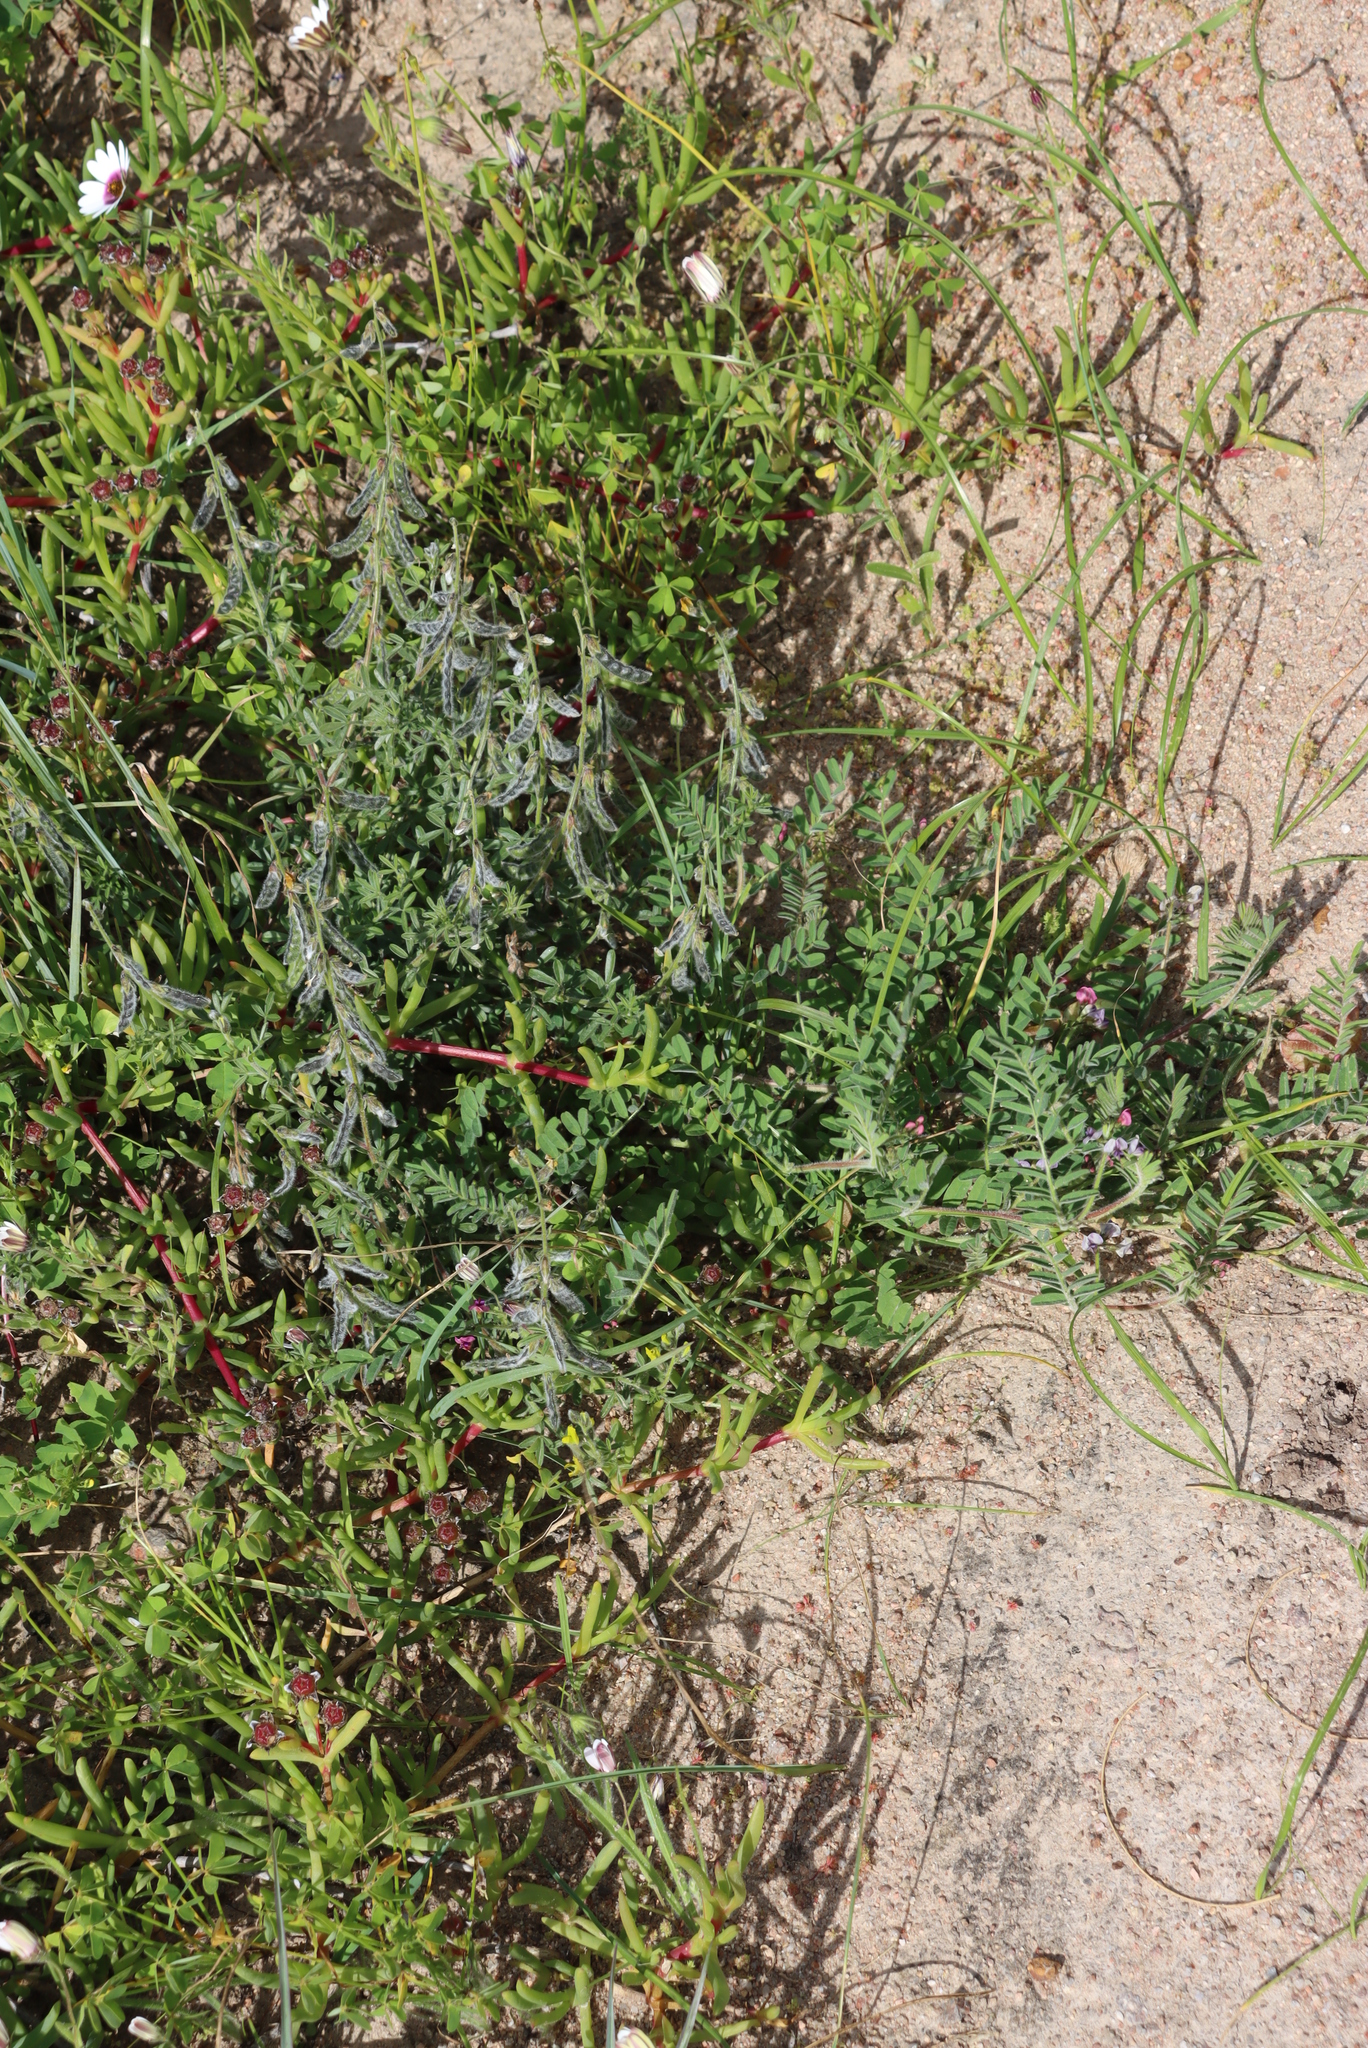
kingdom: Plantae
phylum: Tracheophyta
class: Magnoliopsida
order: Fabales
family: Fabaceae
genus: Melolobium
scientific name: Melolobium aethiopicum
